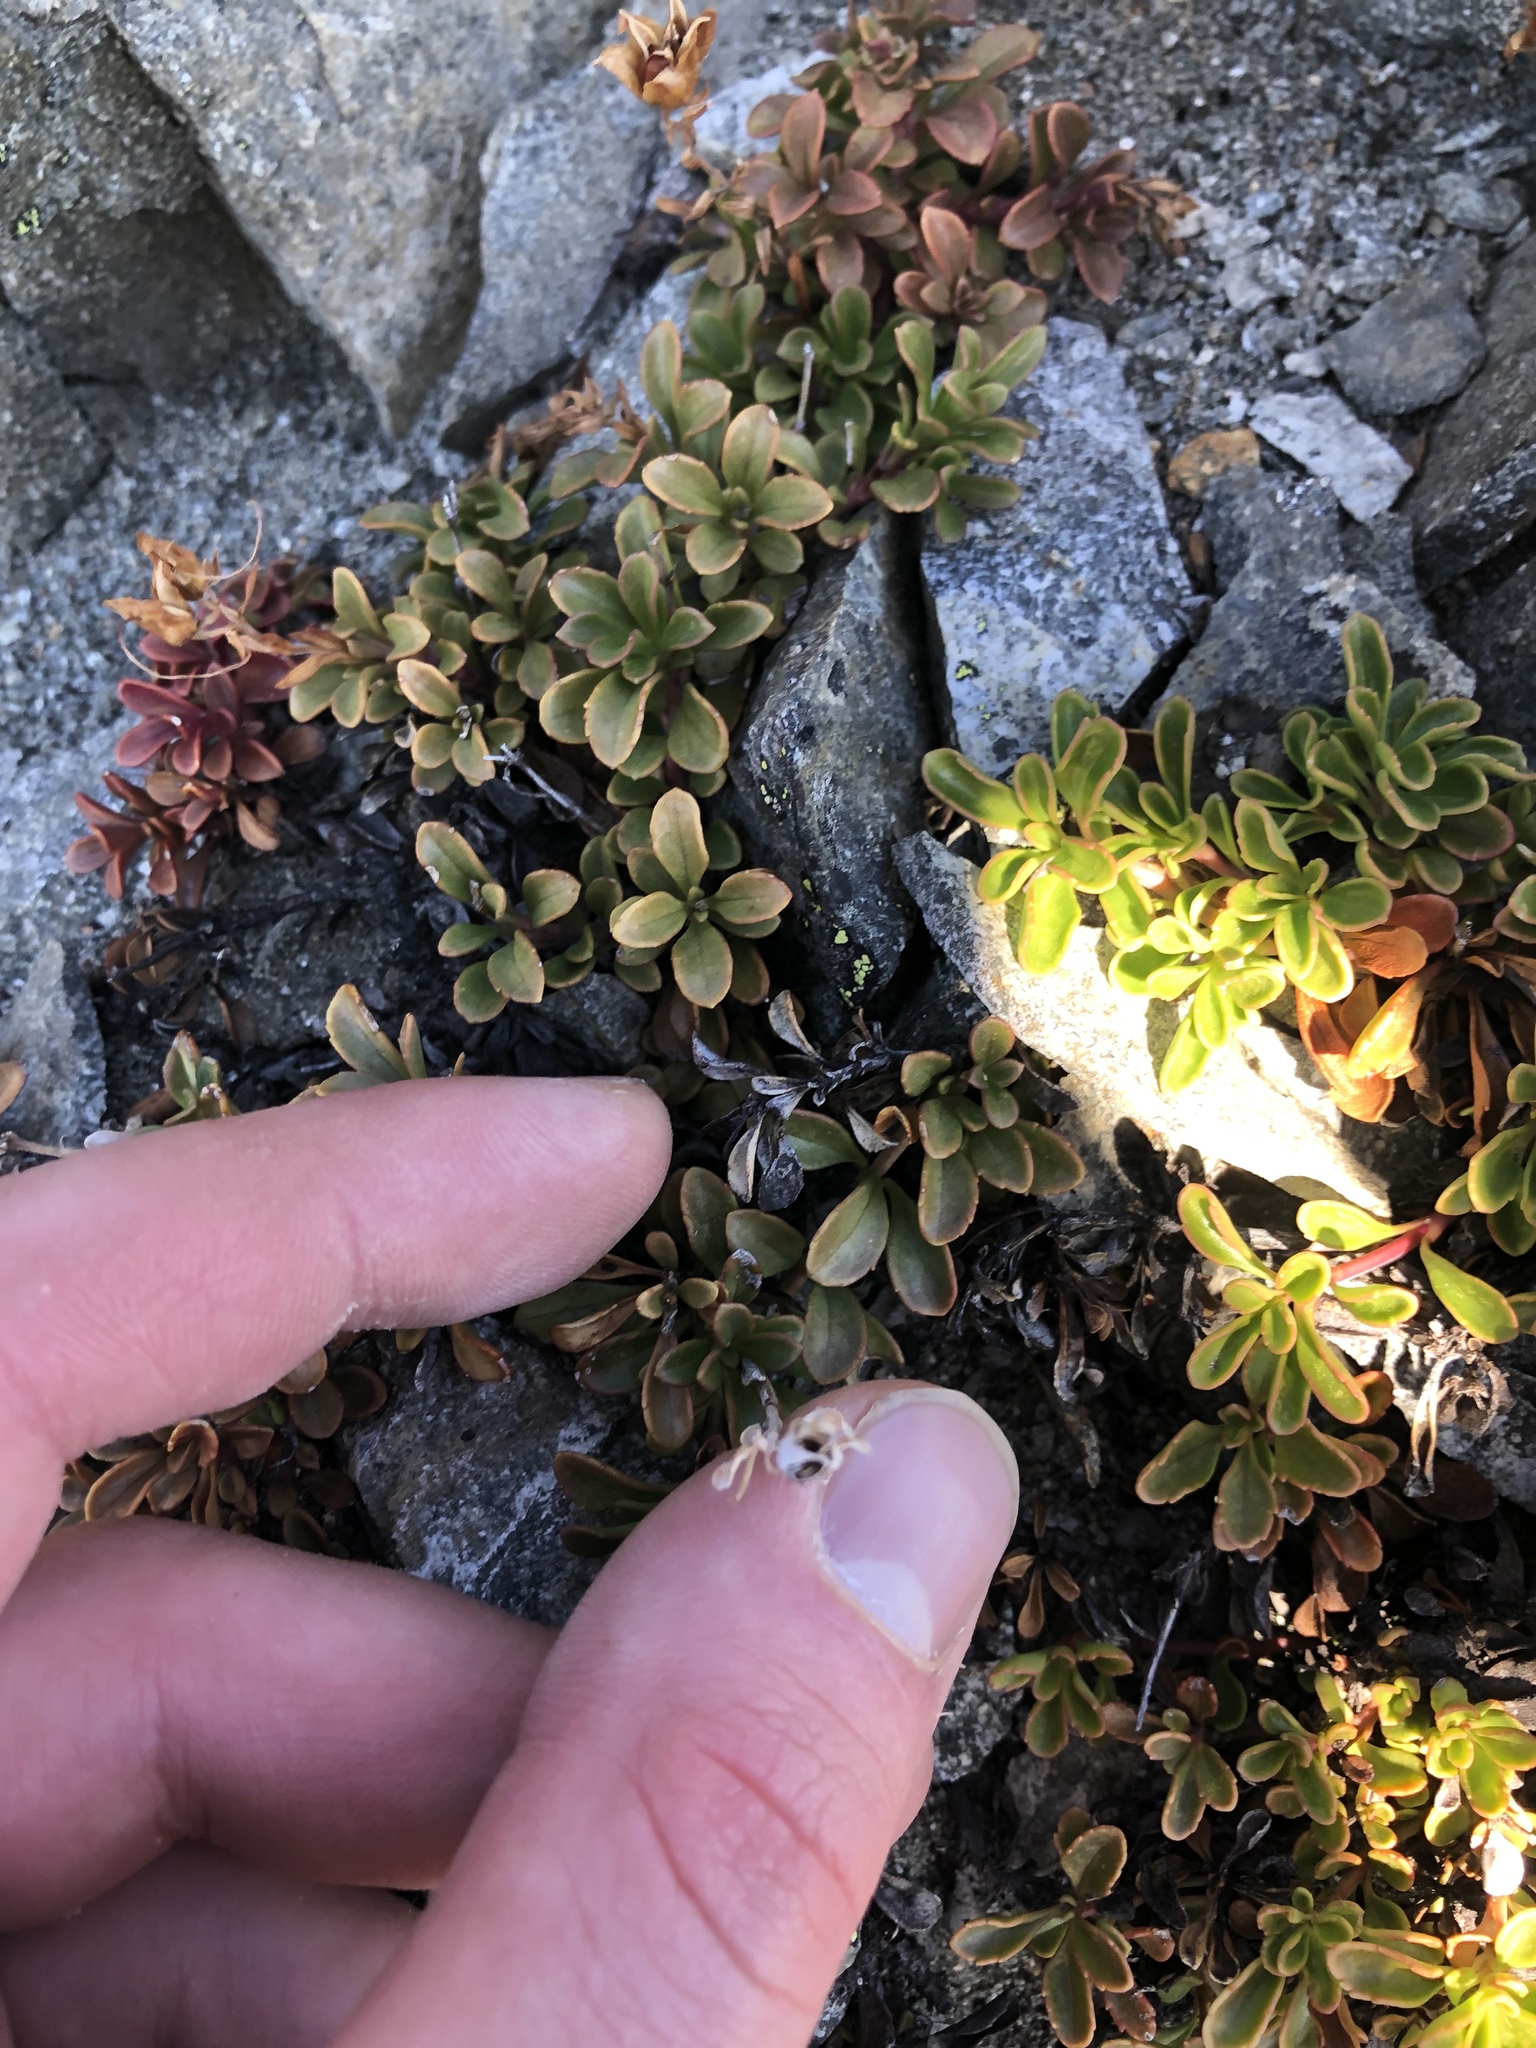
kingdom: Plantae
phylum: Tracheophyta
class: Magnoliopsida
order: Lamiales
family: Plantaginaceae
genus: Penstemon
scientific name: Penstemon davidsonii
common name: Davidson's penstemon
